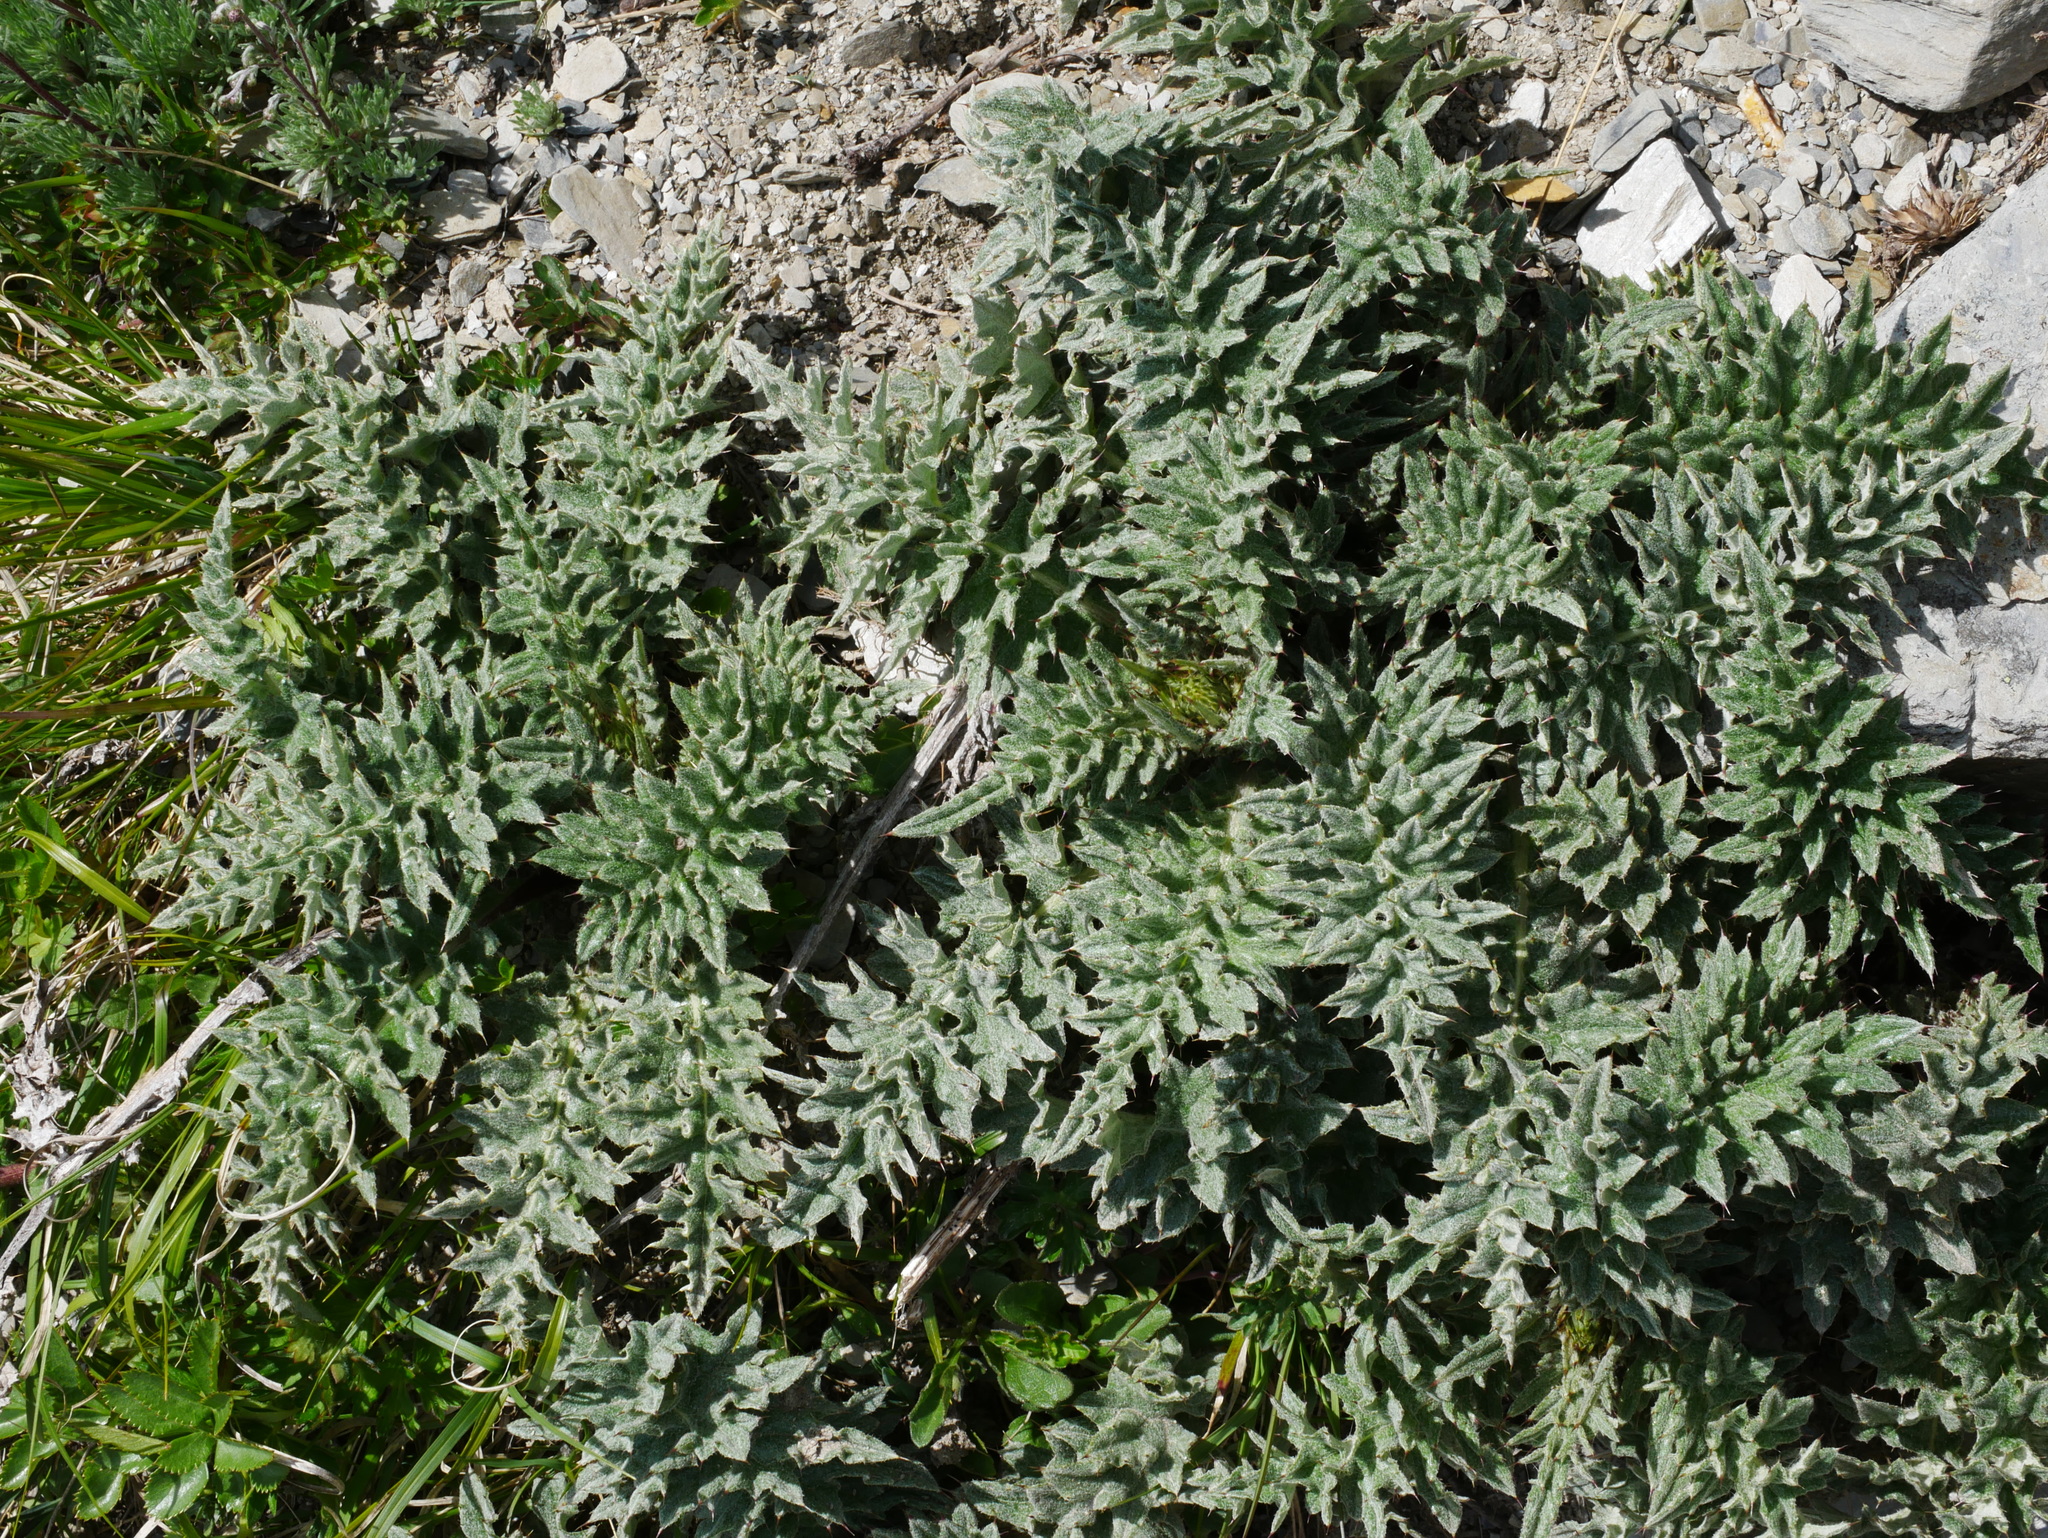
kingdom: Plantae
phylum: Tracheophyta
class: Magnoliopsida
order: Asterales
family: Asteraceae
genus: Cirsium
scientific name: Cirsium arisanense
